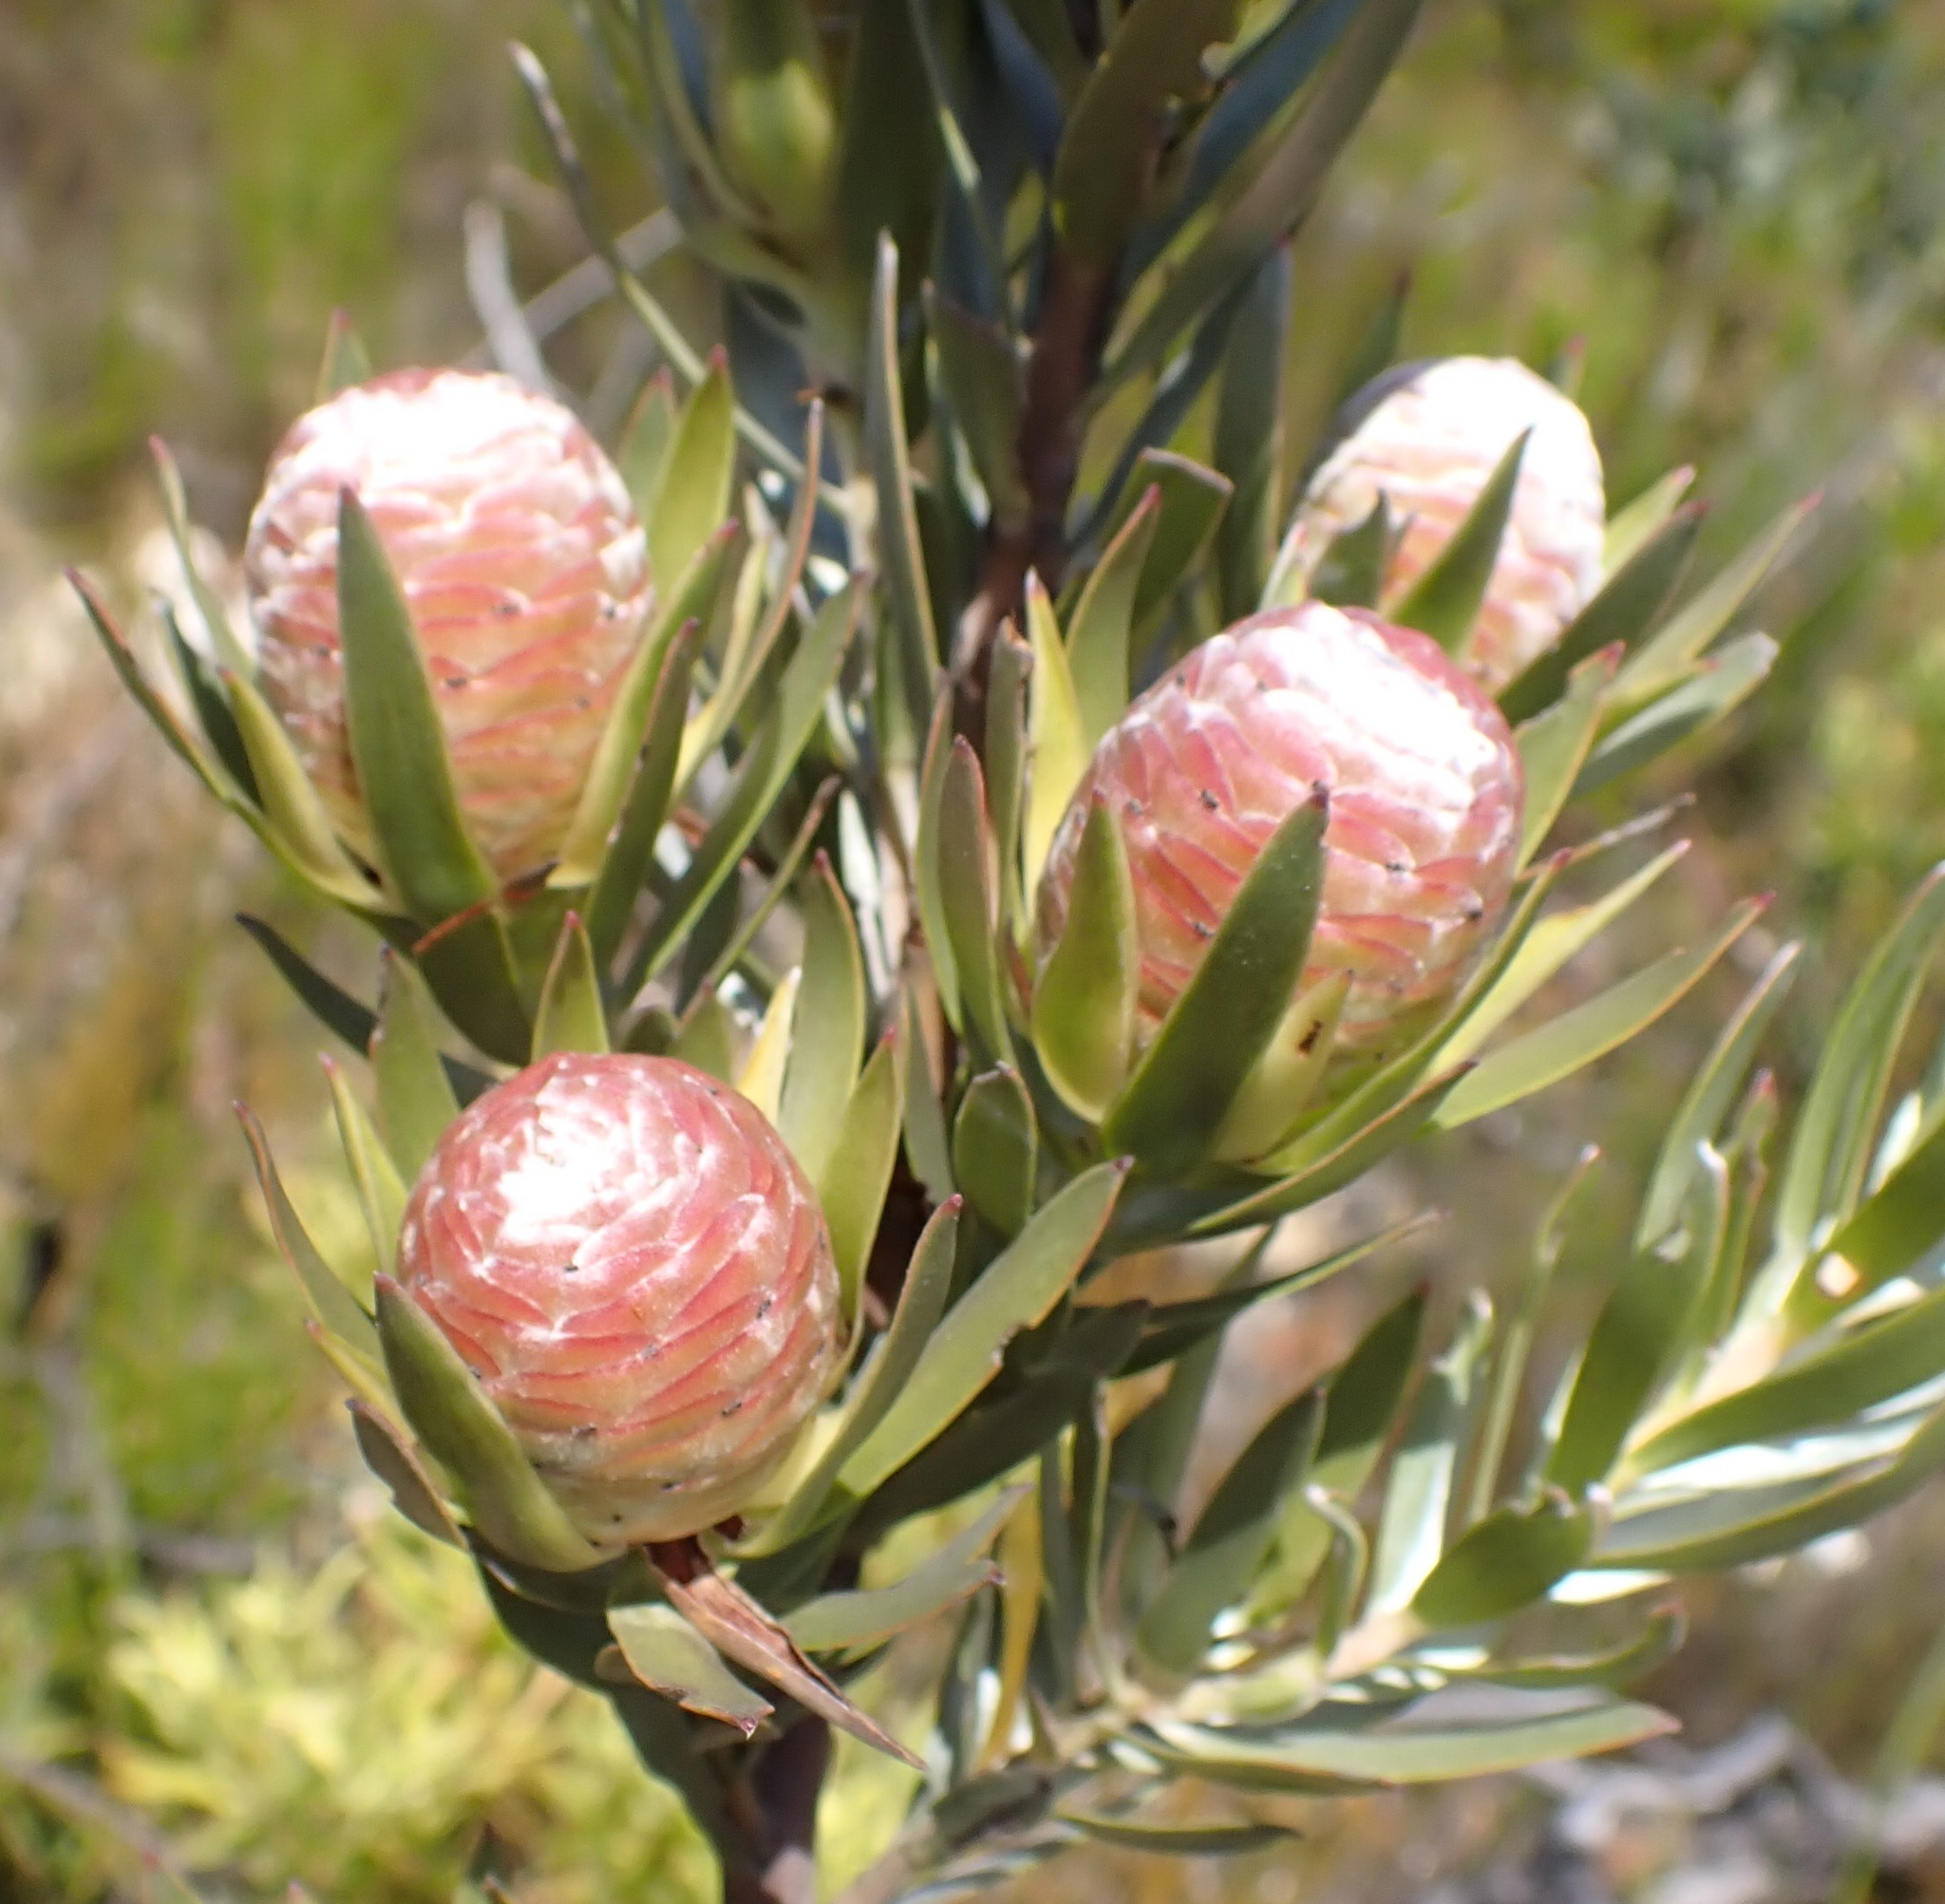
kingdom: Plantae
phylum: Tracheophyta
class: Magnoliopsida
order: Proteales
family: Proteaceae
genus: Leucadendron
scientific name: Leucadendron uliginosum
